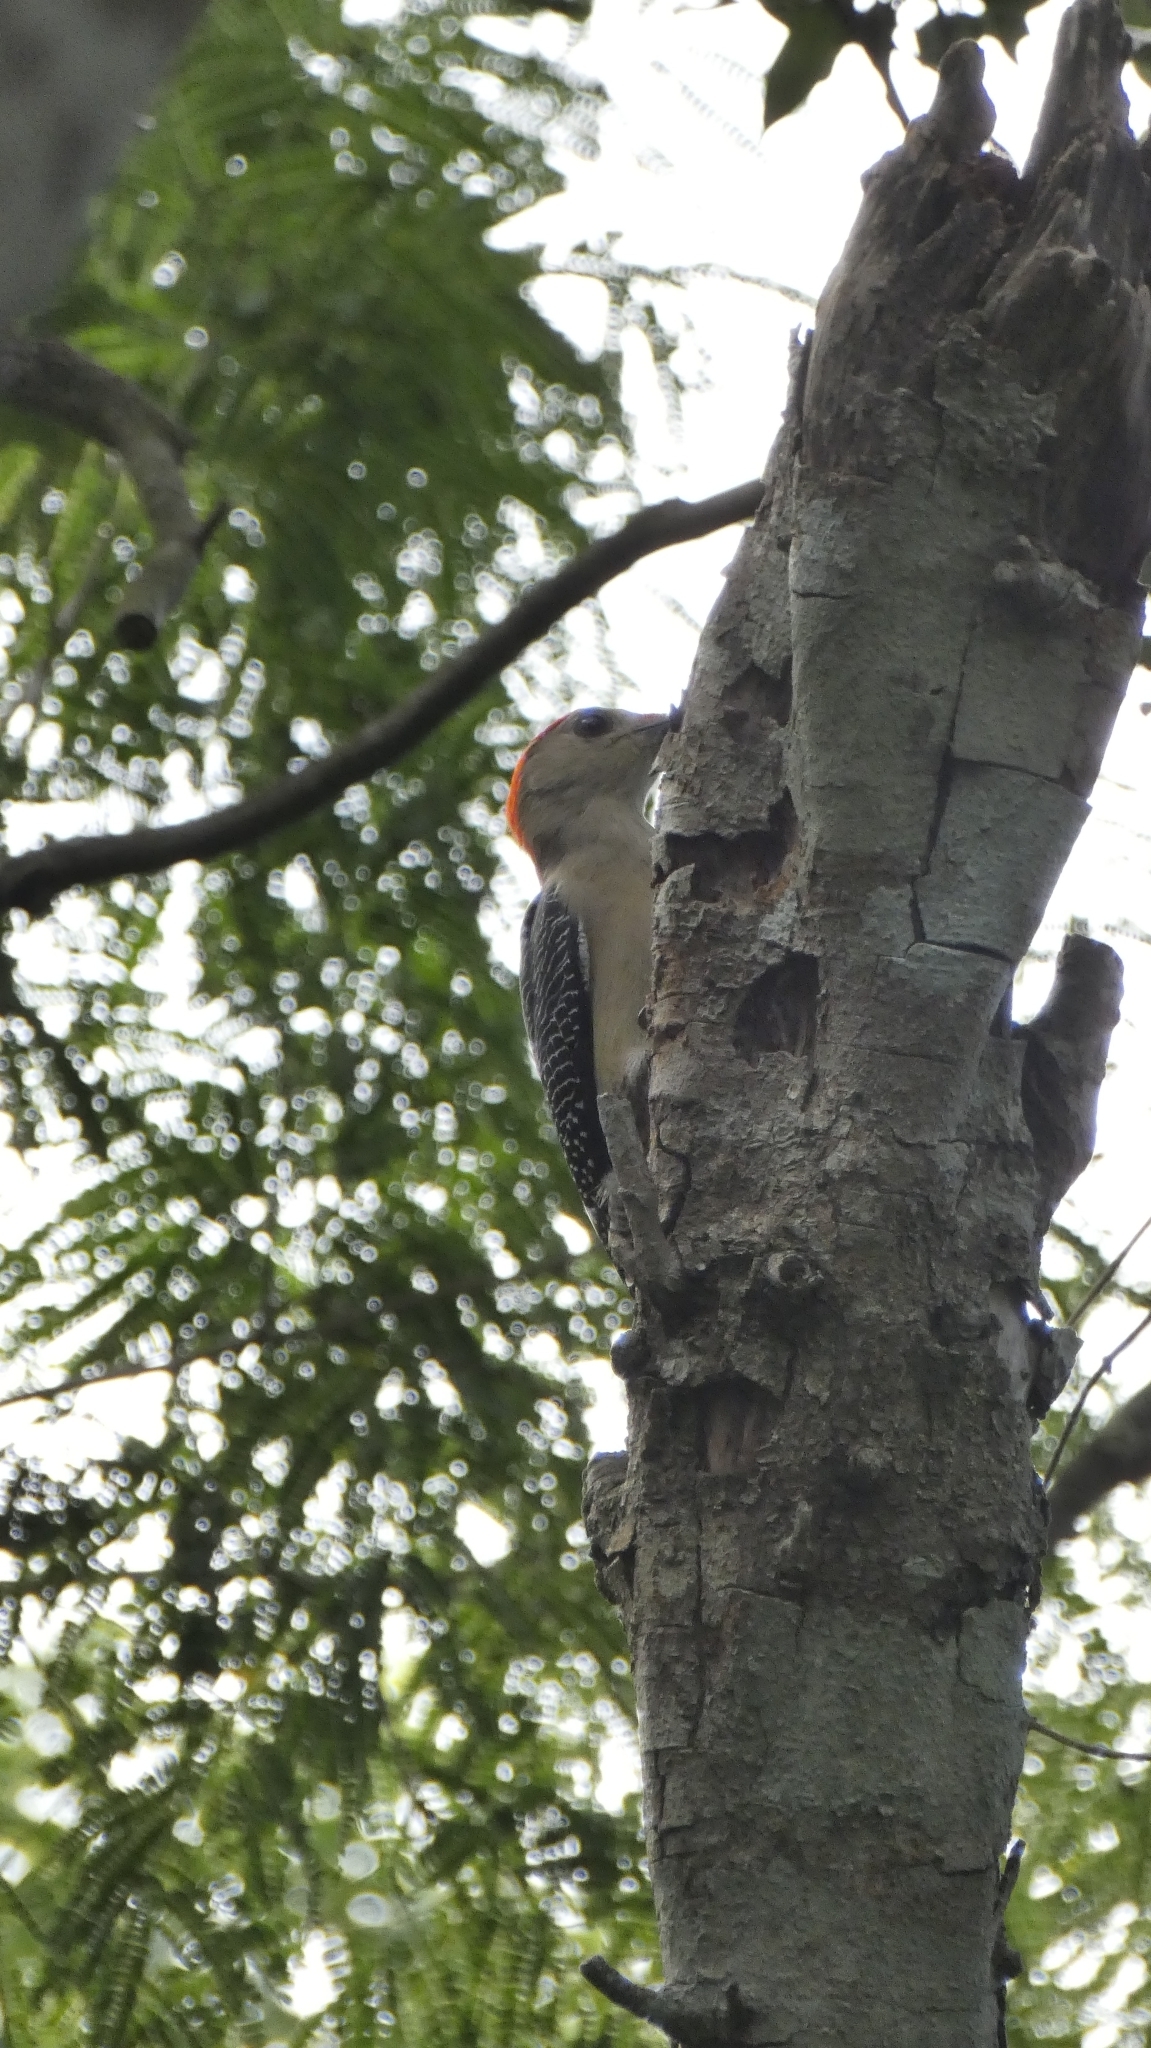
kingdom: Animalia
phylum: Chordata
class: Aves
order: Piciformes
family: Picidae
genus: Melanerpes
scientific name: Melanerpes aurifrons
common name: Golden-fronted woodpecker
